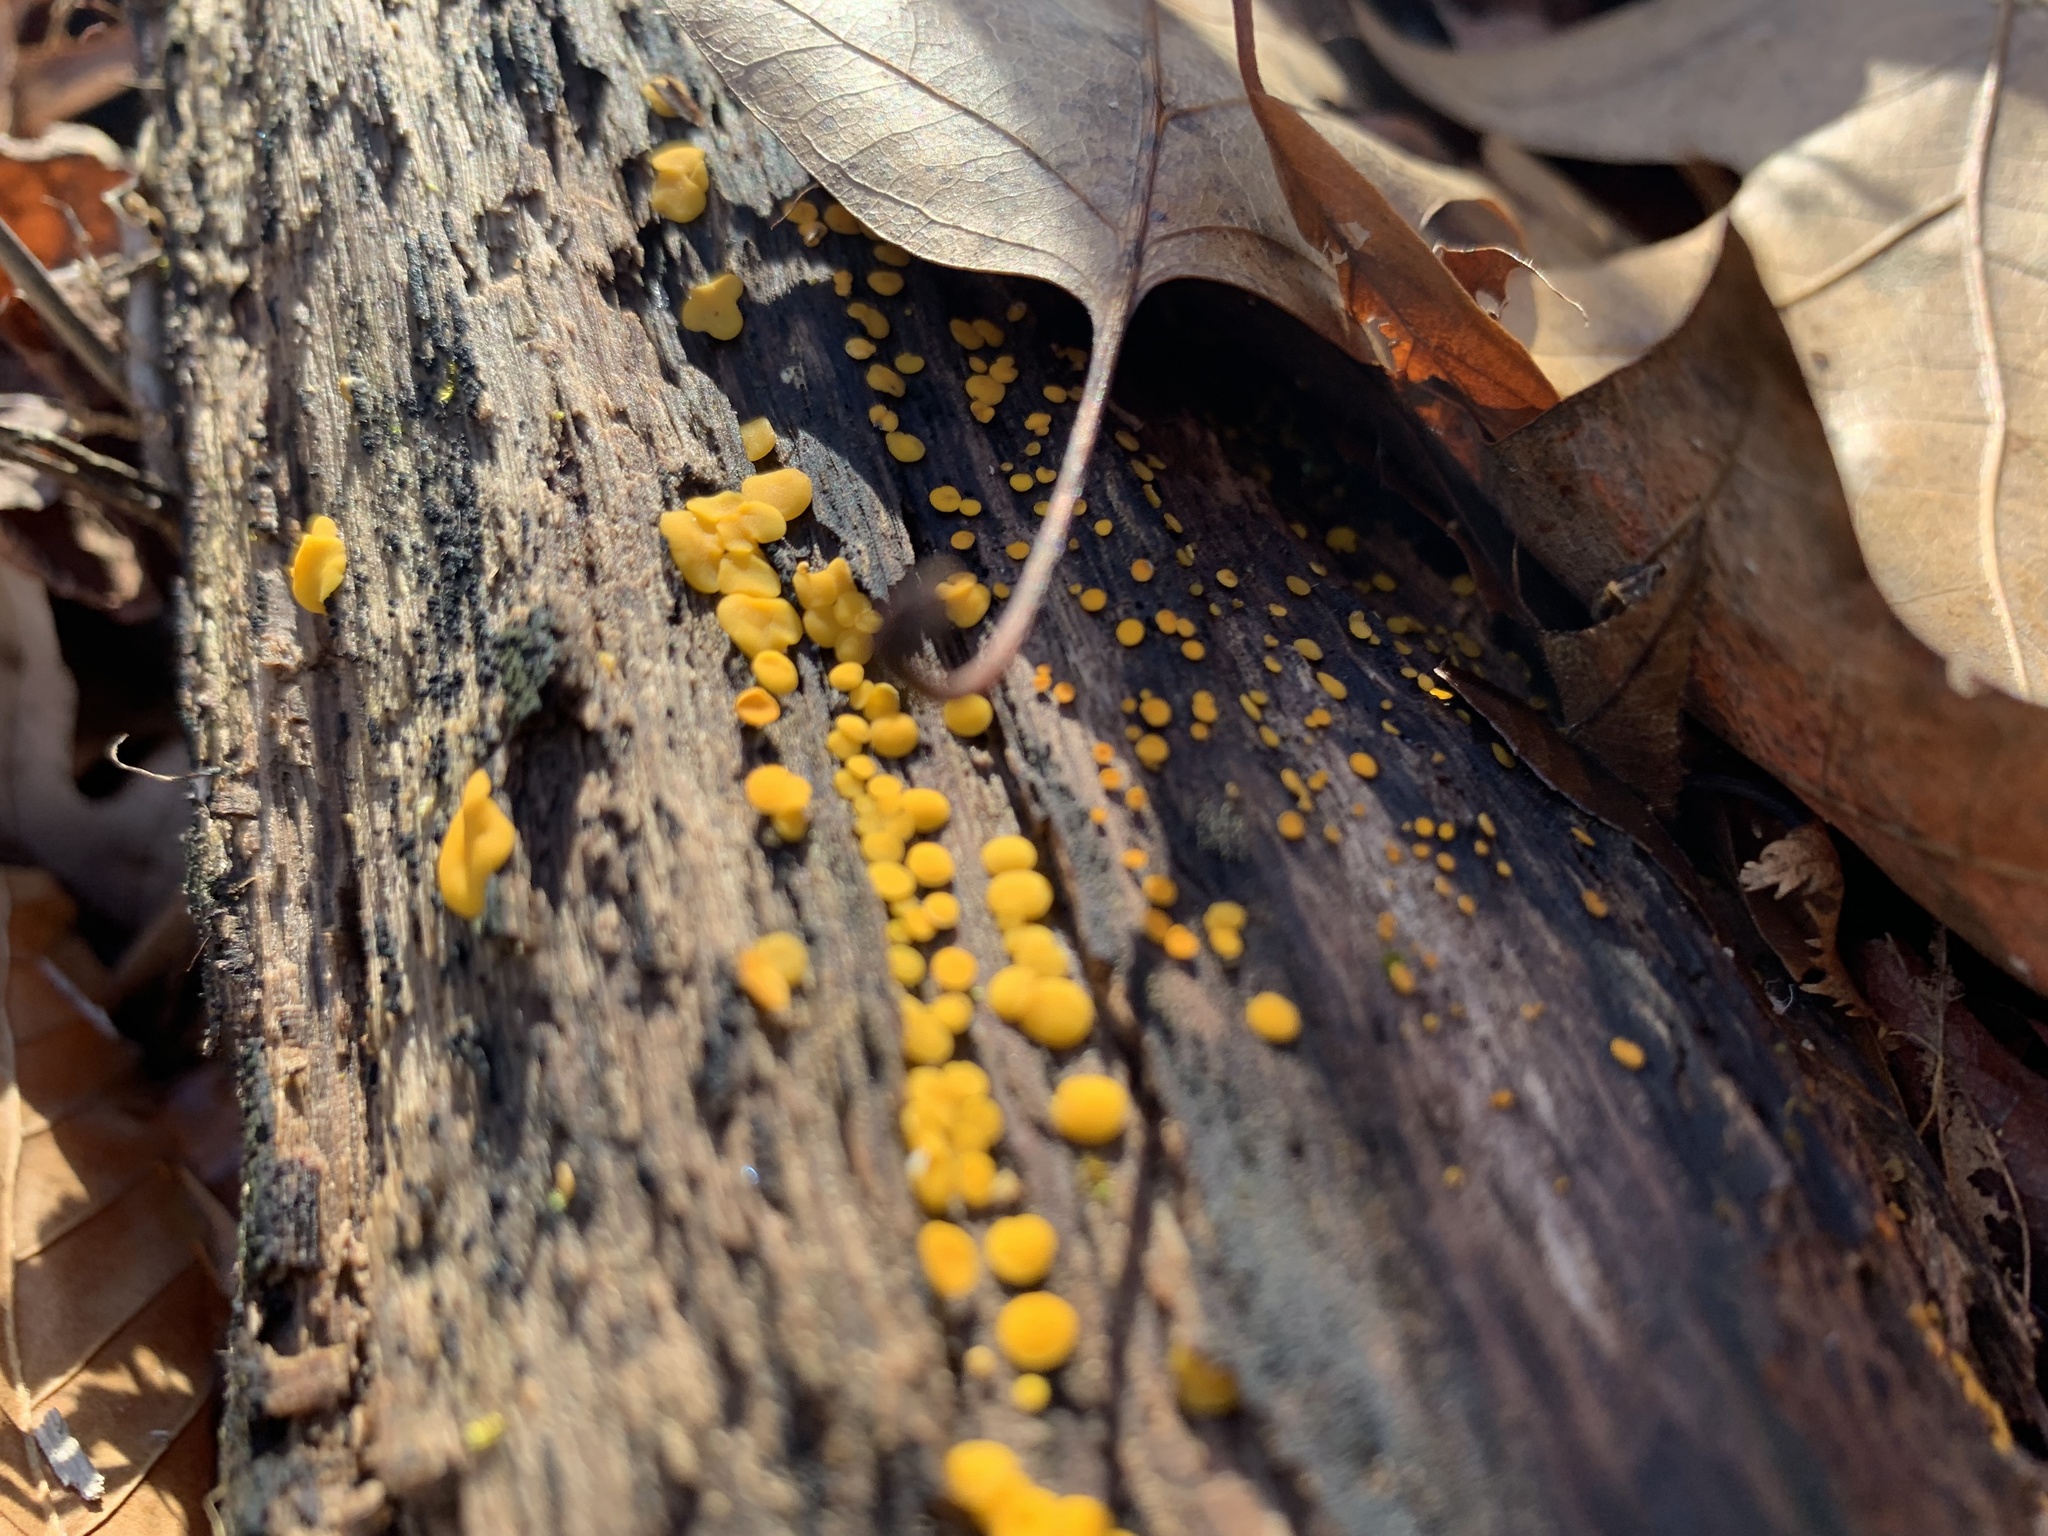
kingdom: Fungi
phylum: Ascomycota
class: Leotiomycetes
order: Helotiales
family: Pezizellaceae
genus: Calycina
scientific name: Calycina citrina
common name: Yellow fairy cups
